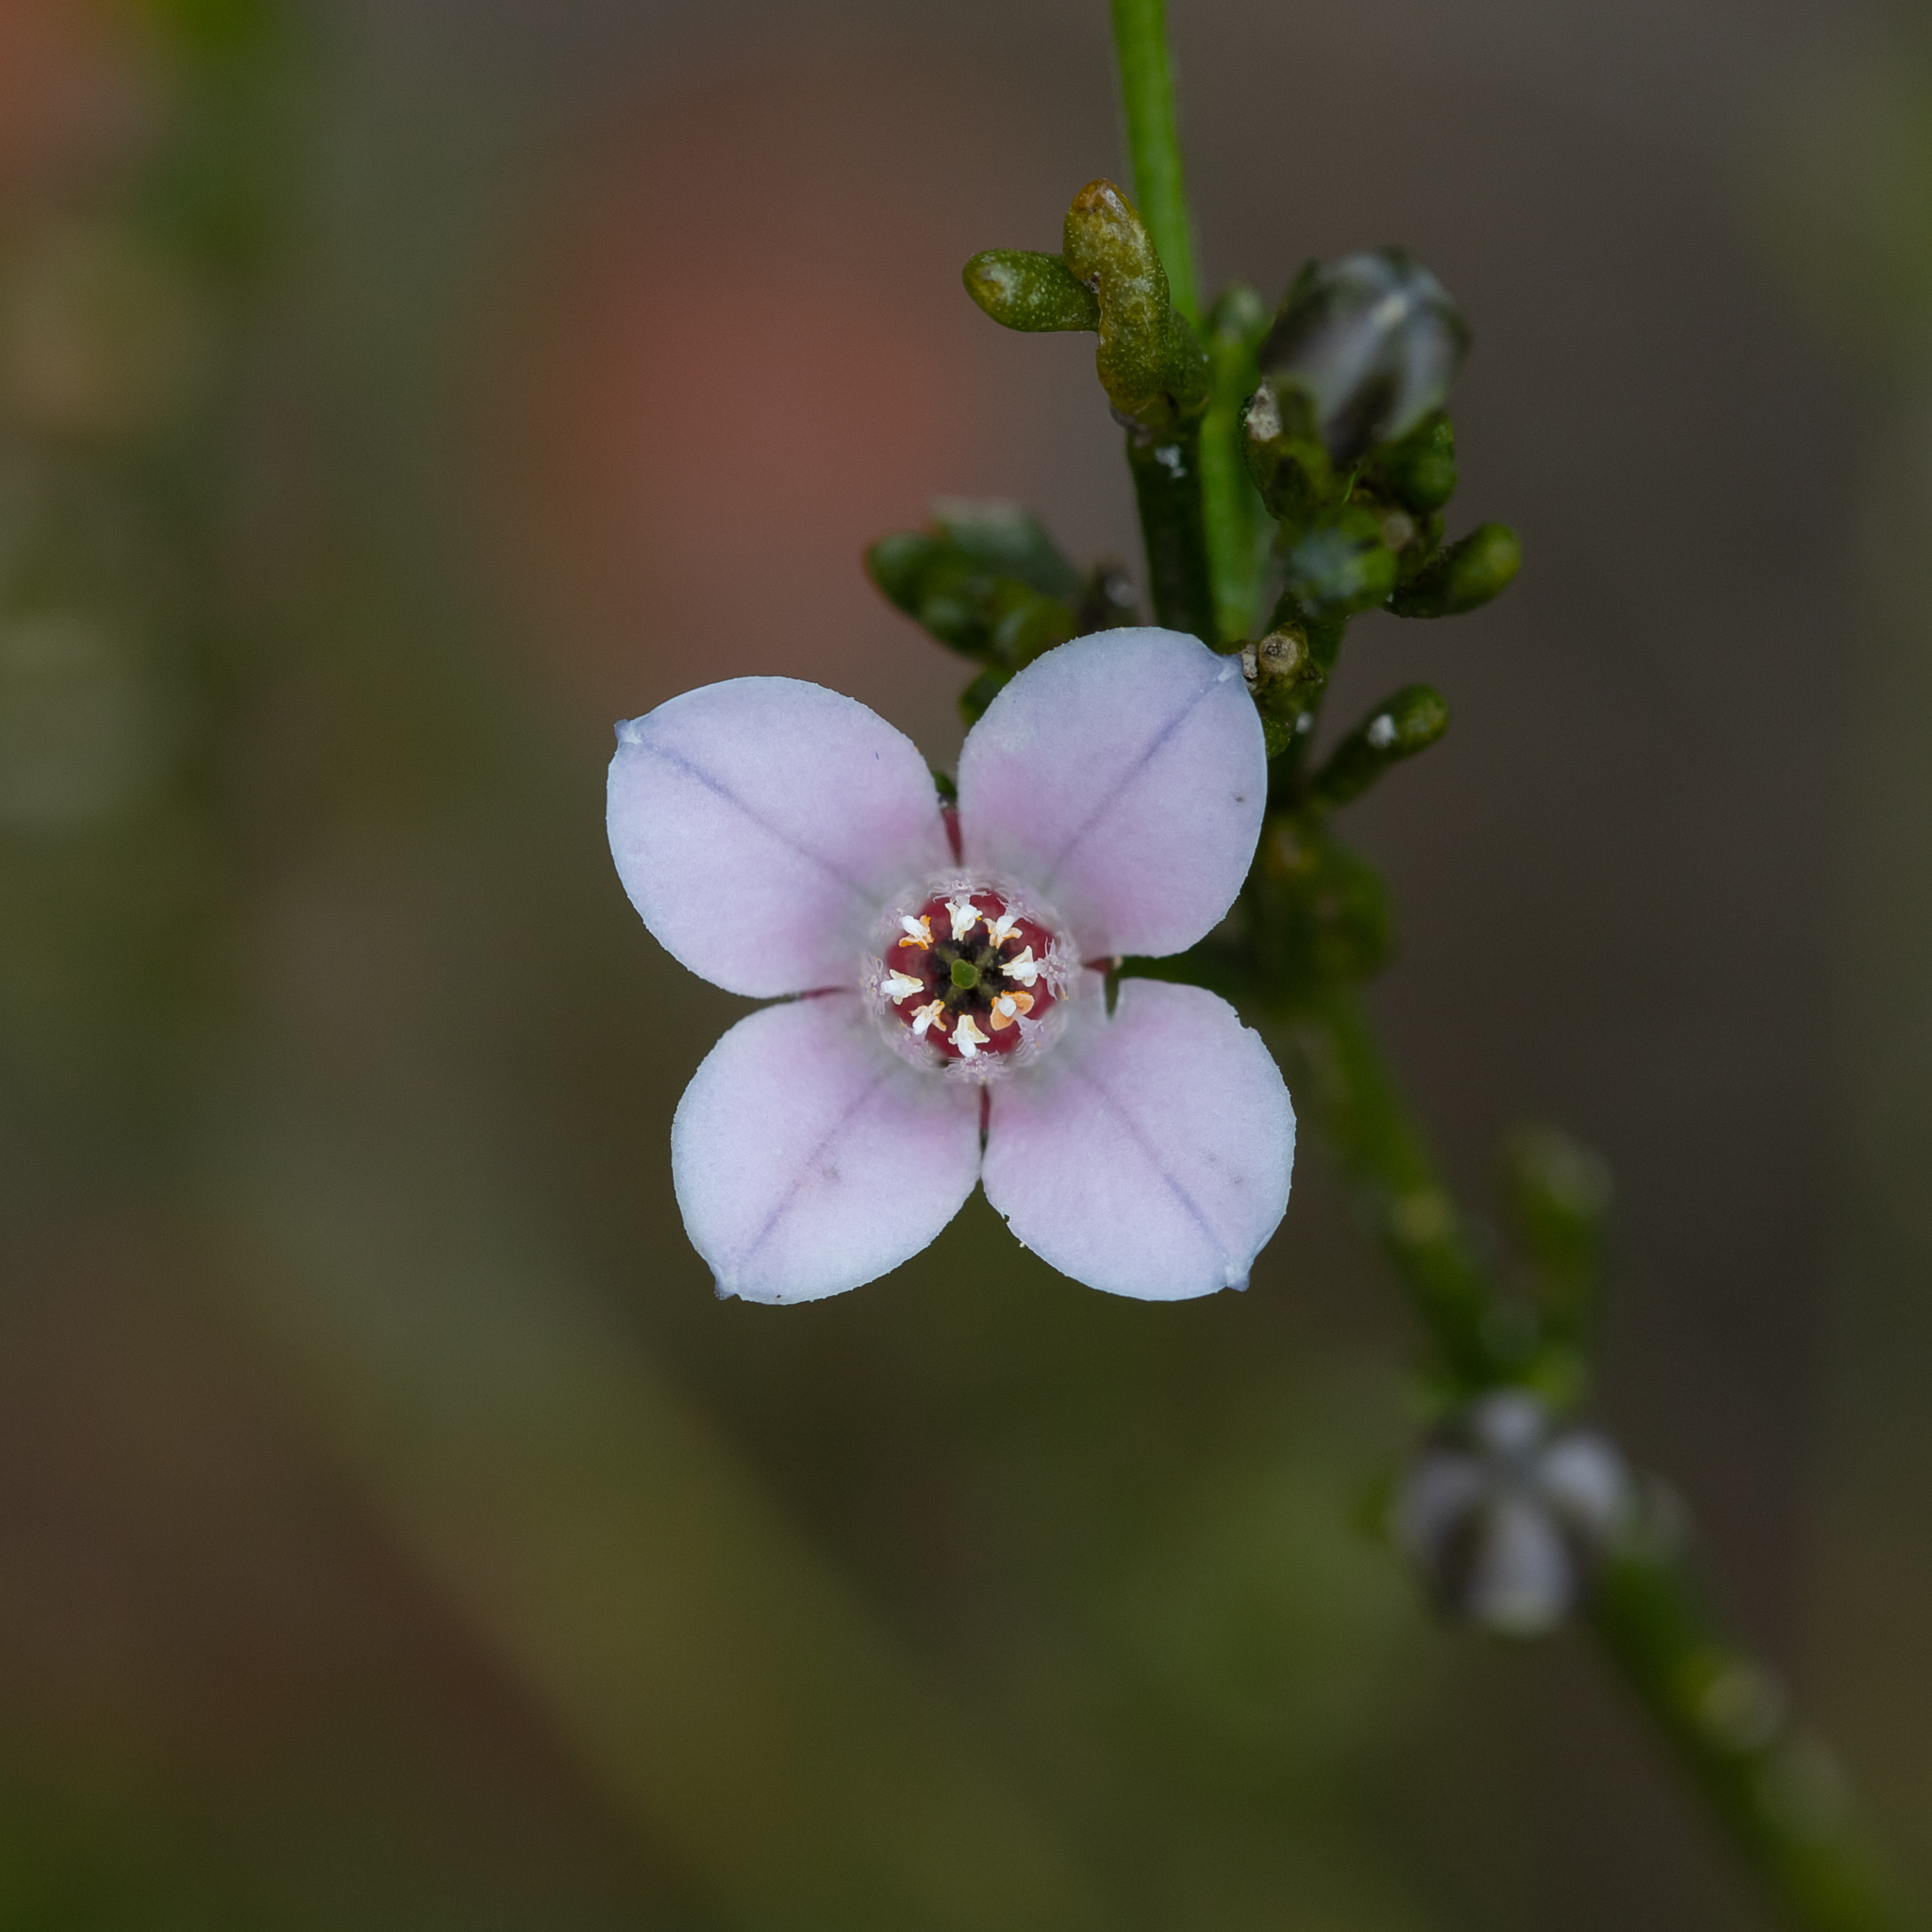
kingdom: Plantae
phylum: Tracheophyta
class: Magnoliopsida
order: Sapindales
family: Rutaceae
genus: Cyanothamnus
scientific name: Cyanothamnus coerulescens
